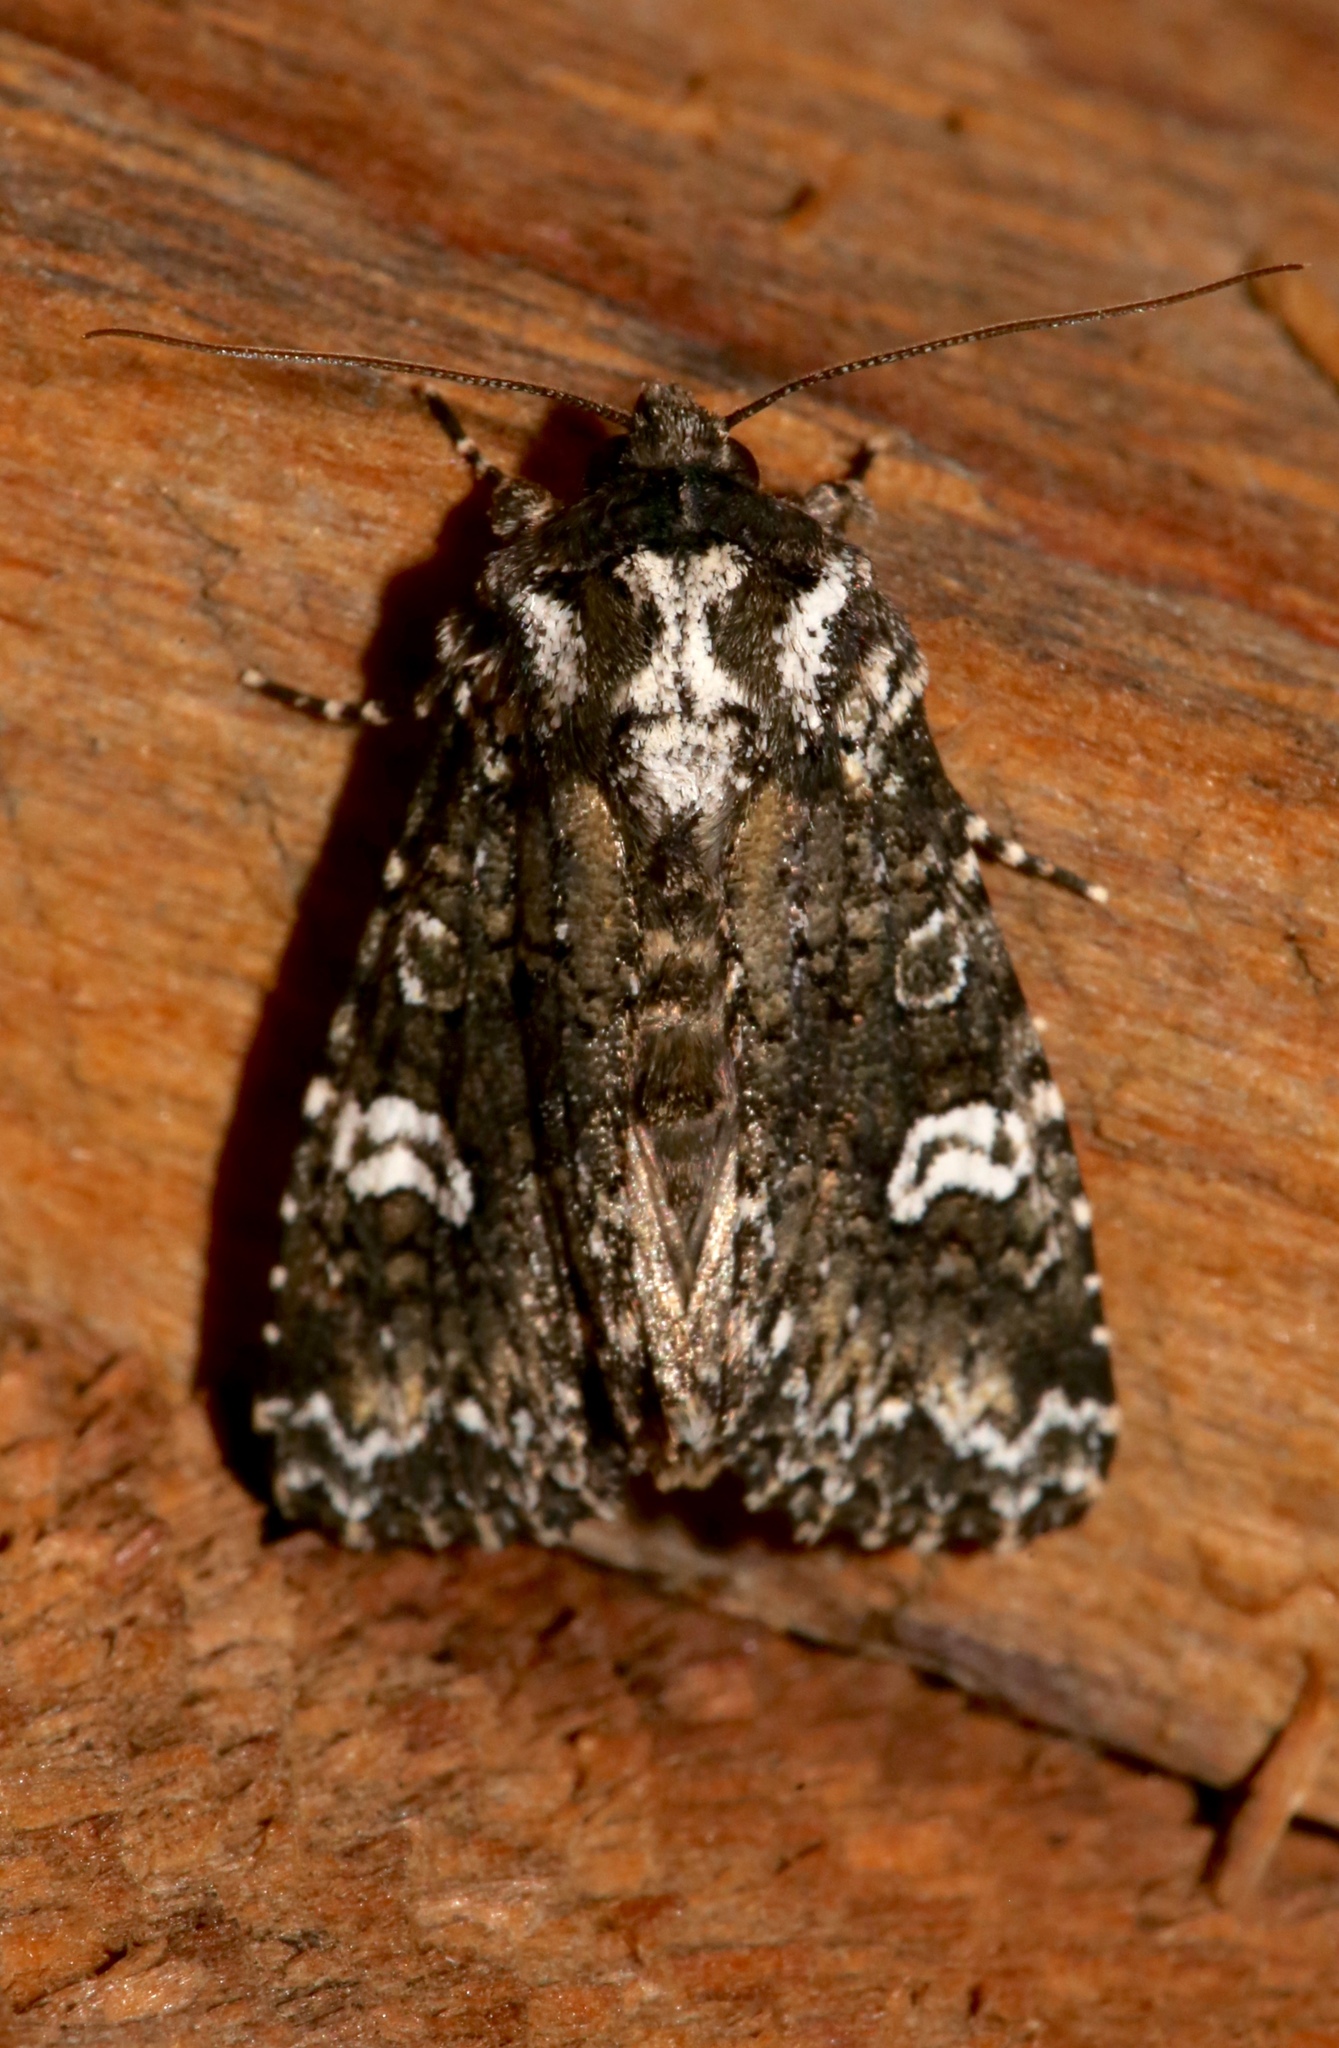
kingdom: Animalia
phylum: Arthropoda
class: Insecta
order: Lepidoptera
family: Noctuidae
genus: Melanchra
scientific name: Melanchra adjuncta
